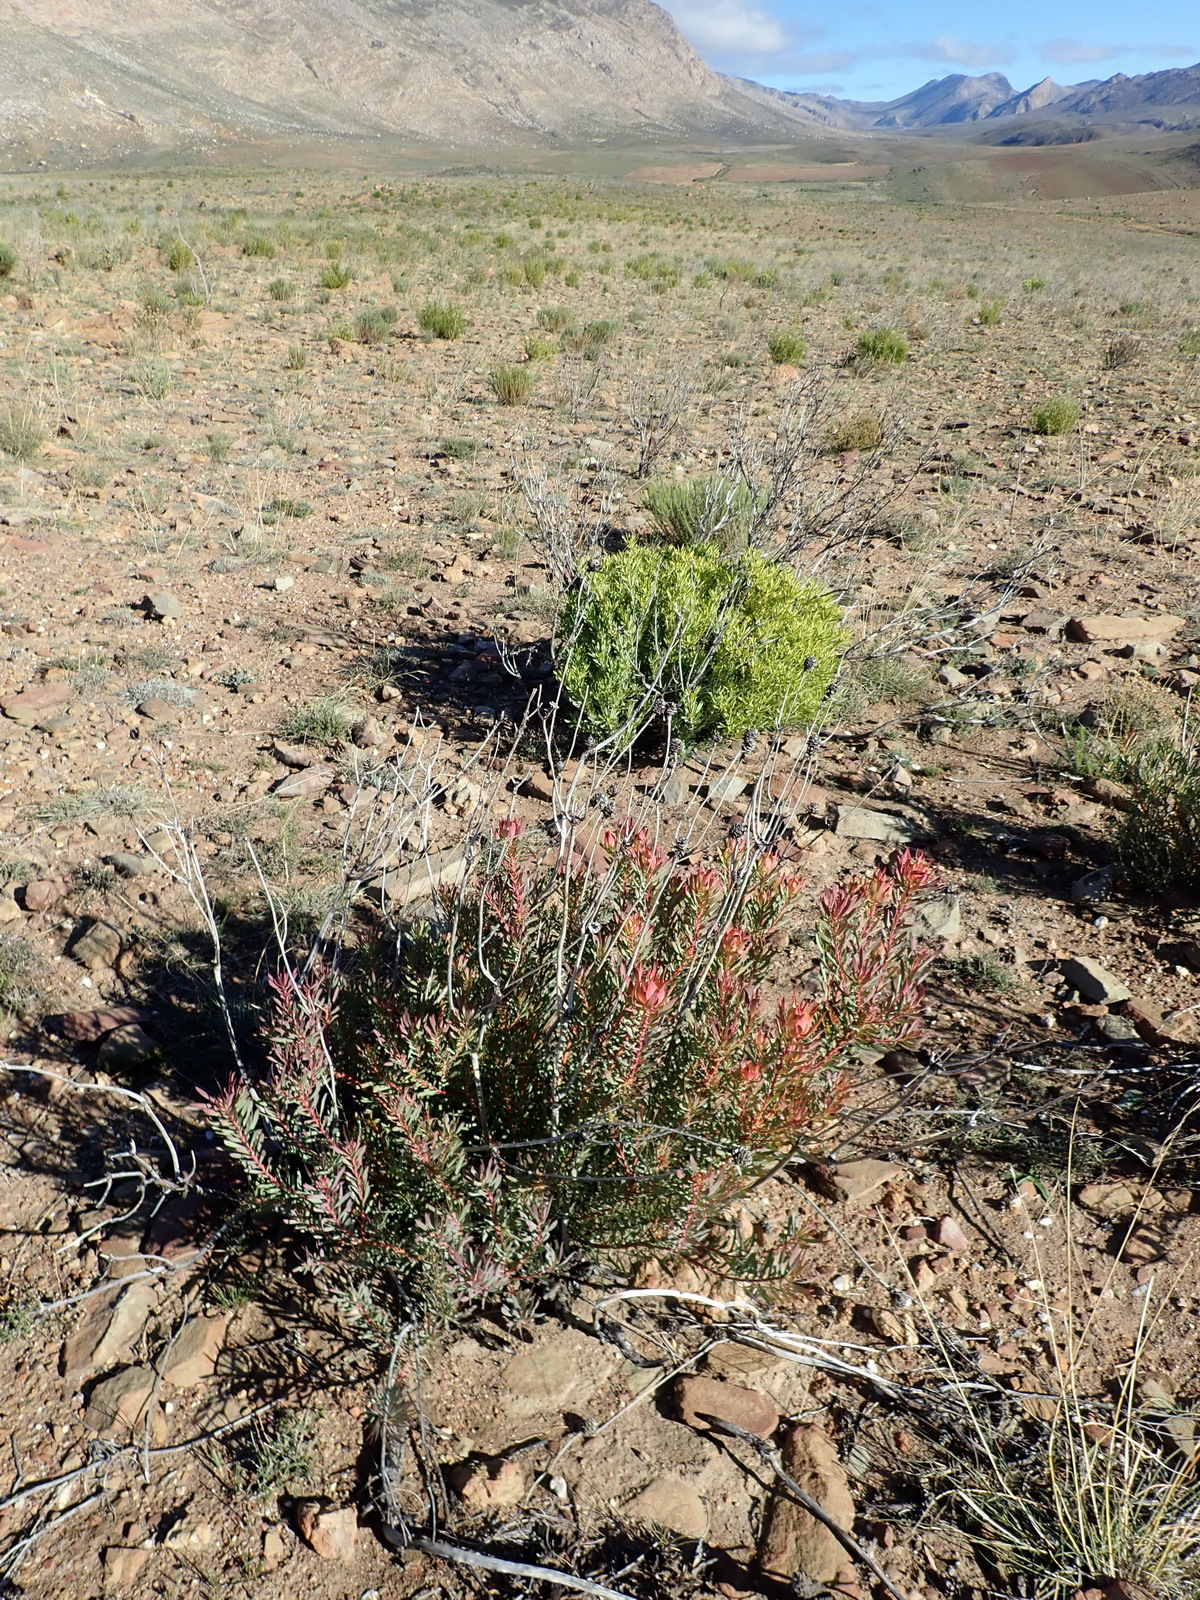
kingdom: Plantae
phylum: Tracheophyta
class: Magnoliopsida
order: Proteales
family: Proteaceae
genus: Leucadendron
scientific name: Leucadendron salignum
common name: Common sunshine conebush
